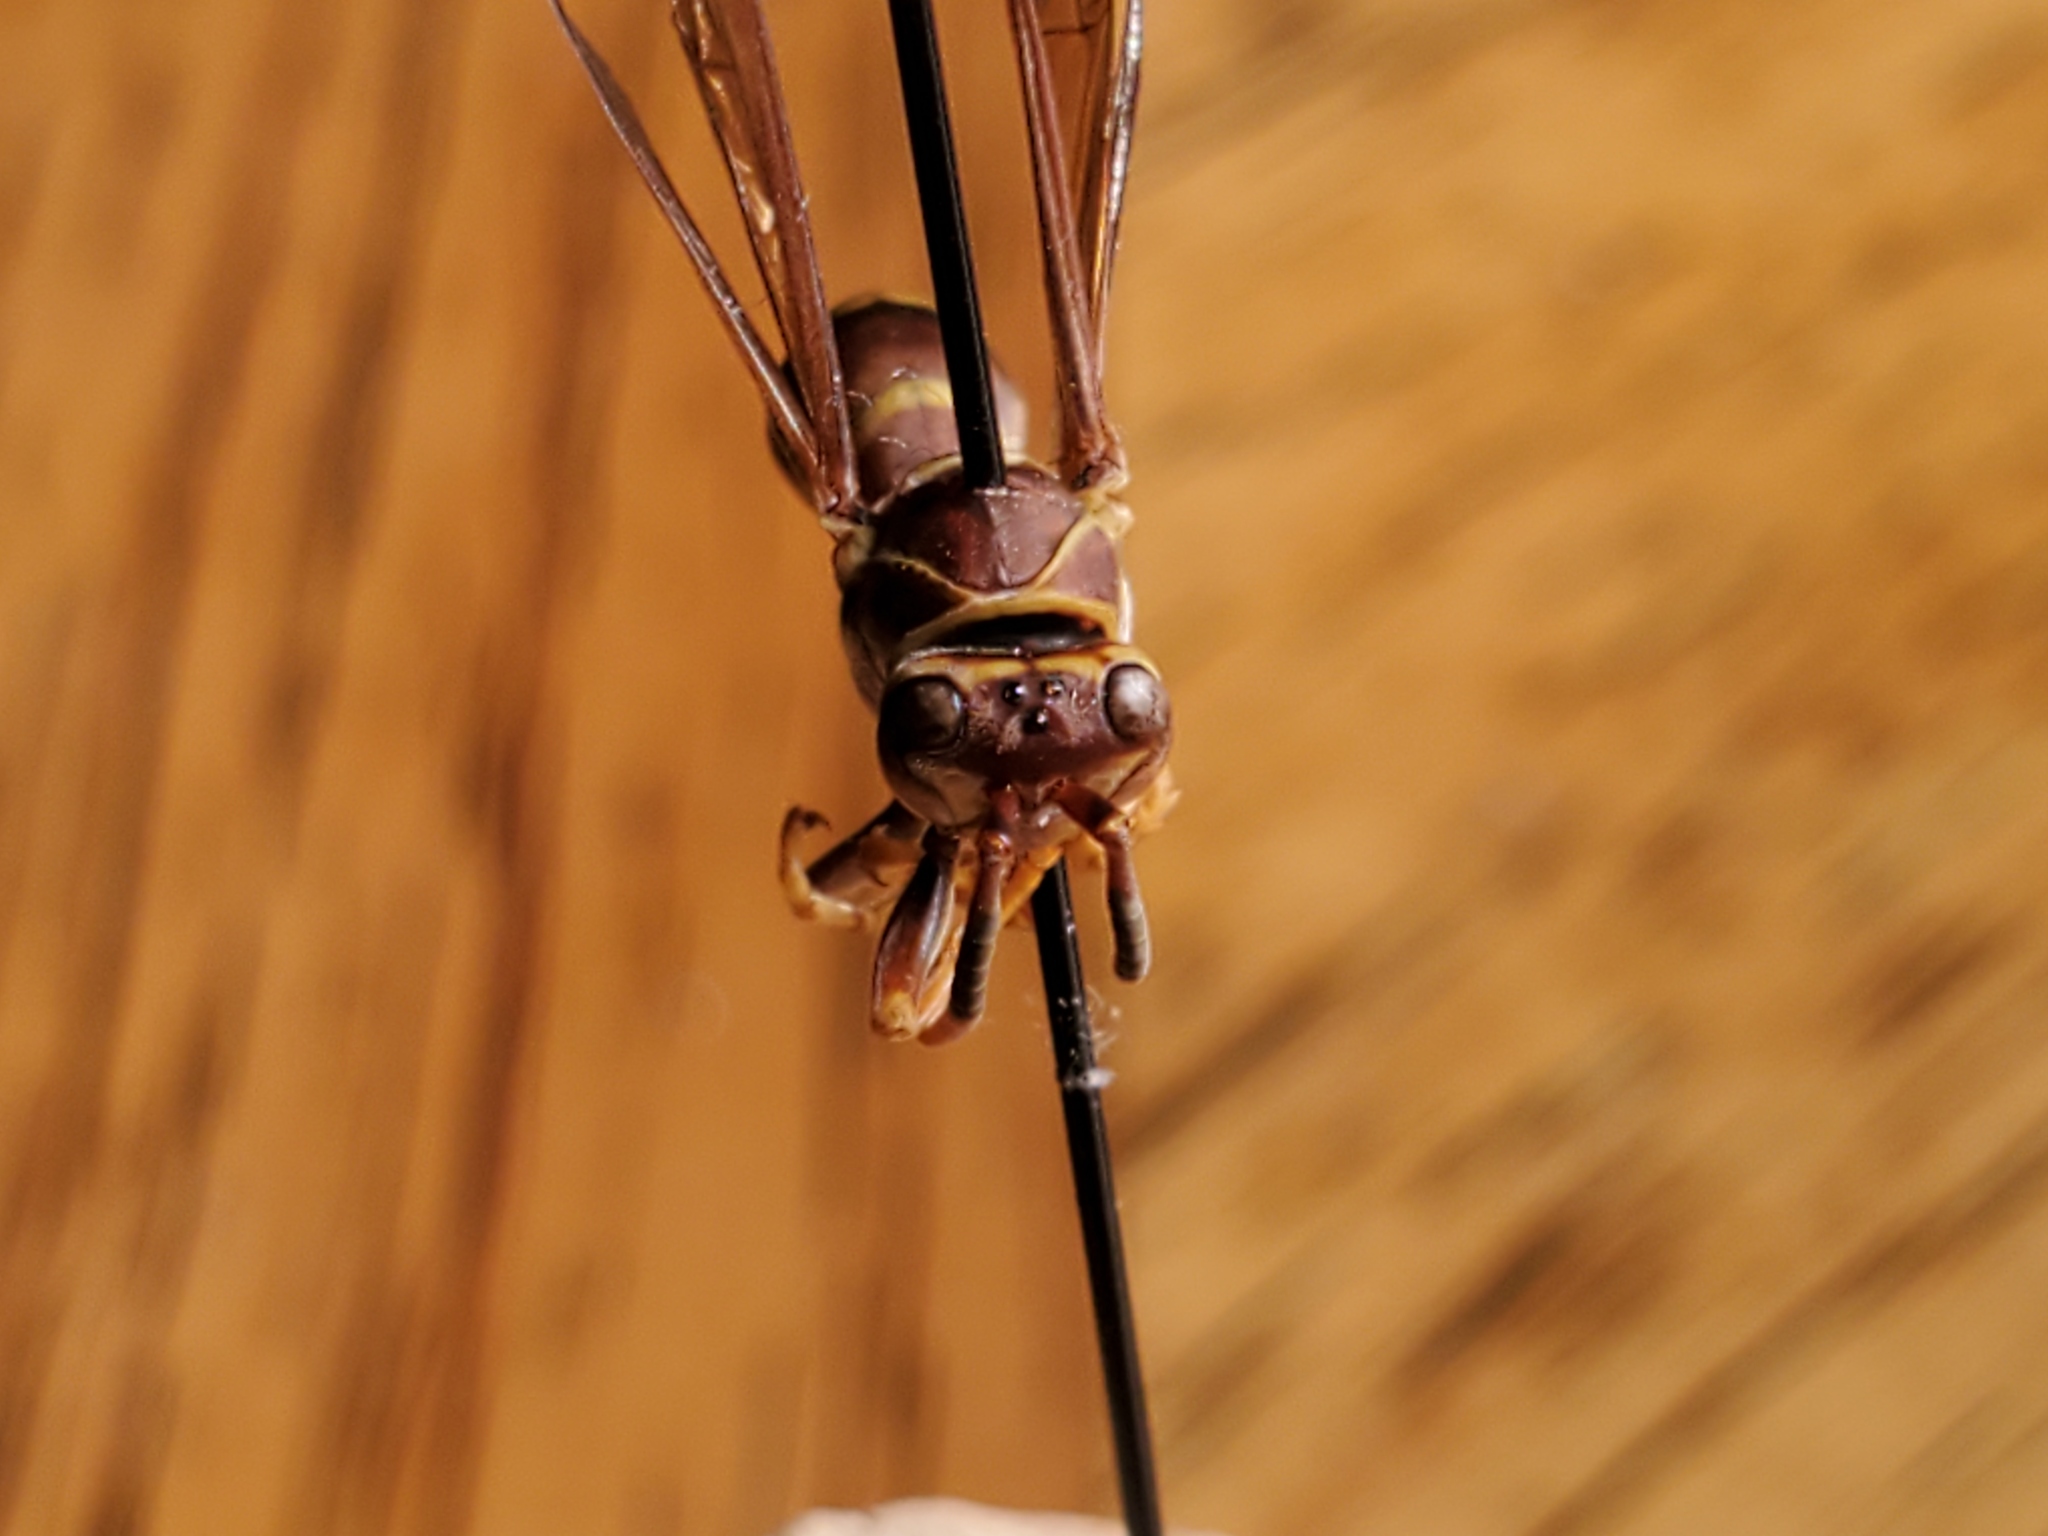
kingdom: Animalia
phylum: Arthropoda
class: Insecta
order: Hymenoptera
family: Eumenidae
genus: Polistes
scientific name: Polistes exclamans
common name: Paper wasp
